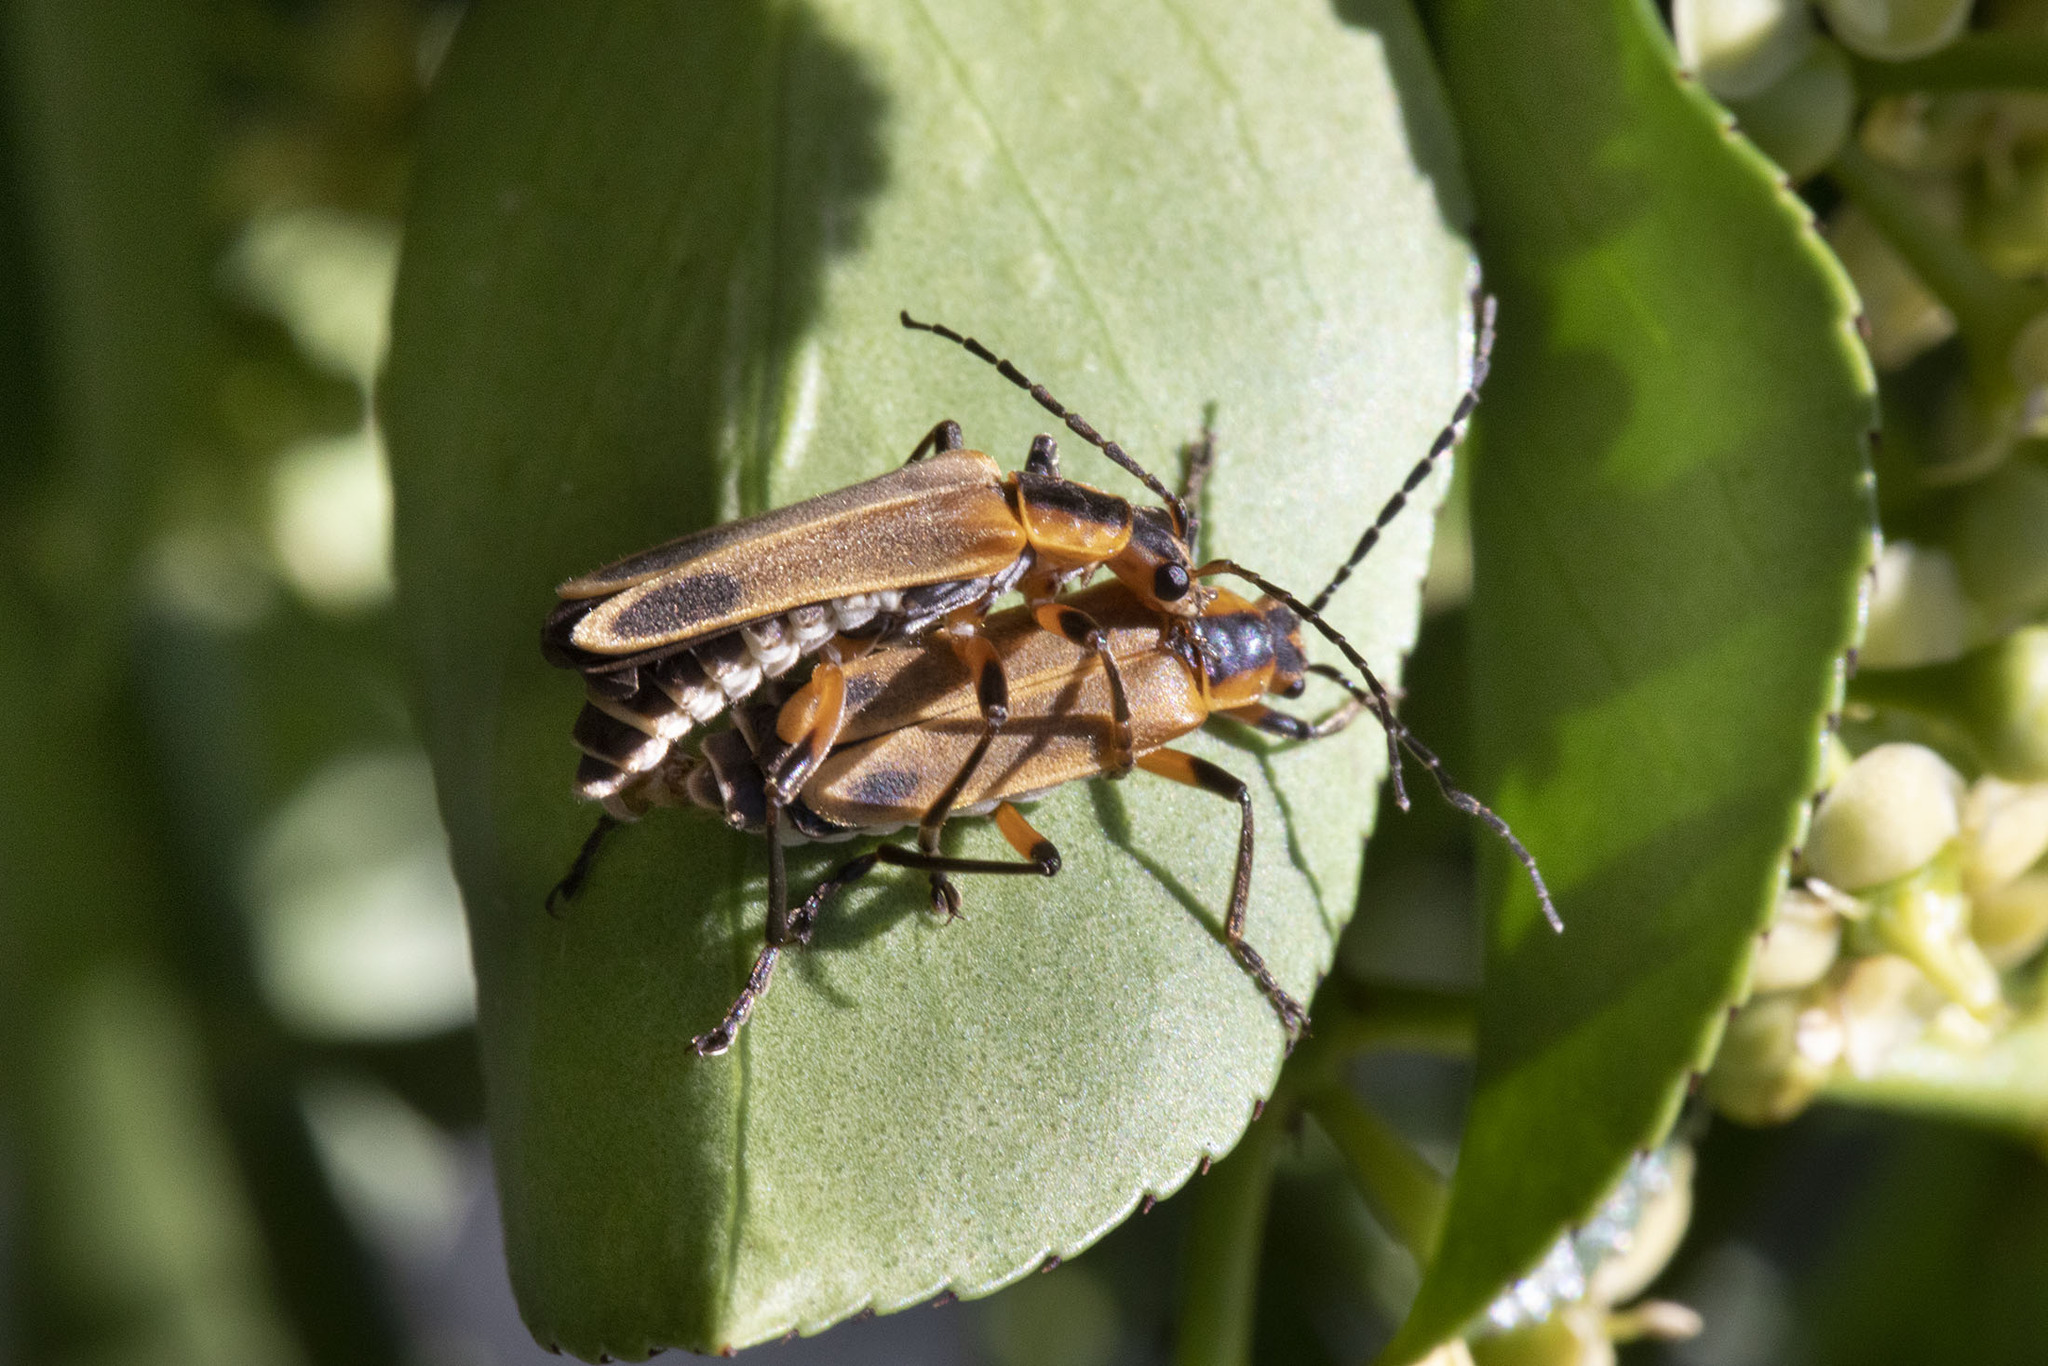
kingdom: Animalia
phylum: Arthropoda
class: Insecta
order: Coleoptera
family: Cantharidae
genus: Chauliognathus
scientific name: Chauliognathus marginatus
